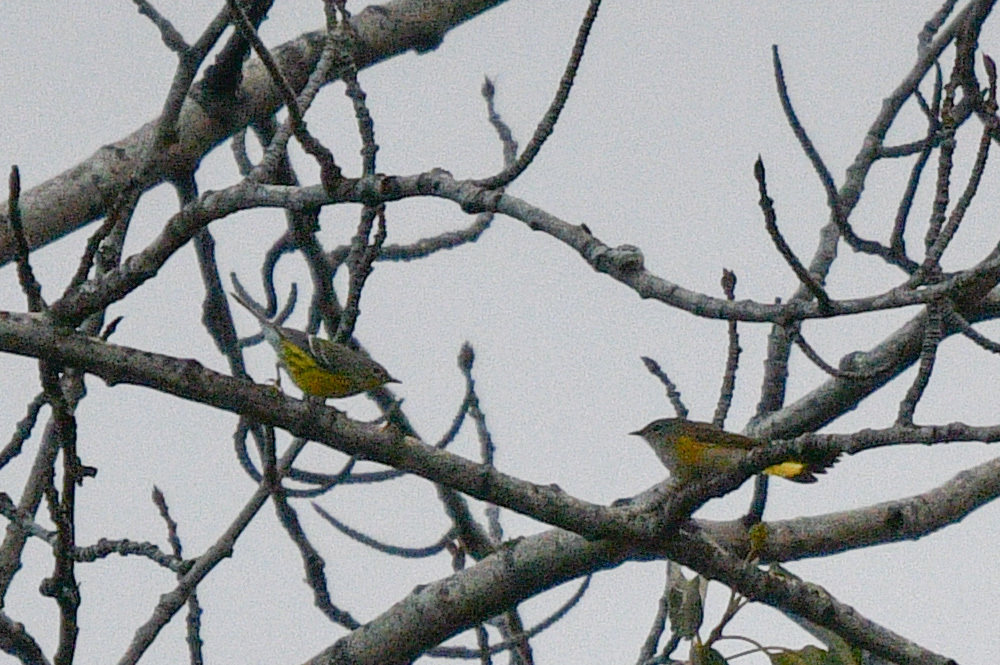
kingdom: Animalia
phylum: Chordata
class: Aves
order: Passeriformes
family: Parulidae
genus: Setophaga
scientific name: Setophaga magnolia
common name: Magnolia warbler
